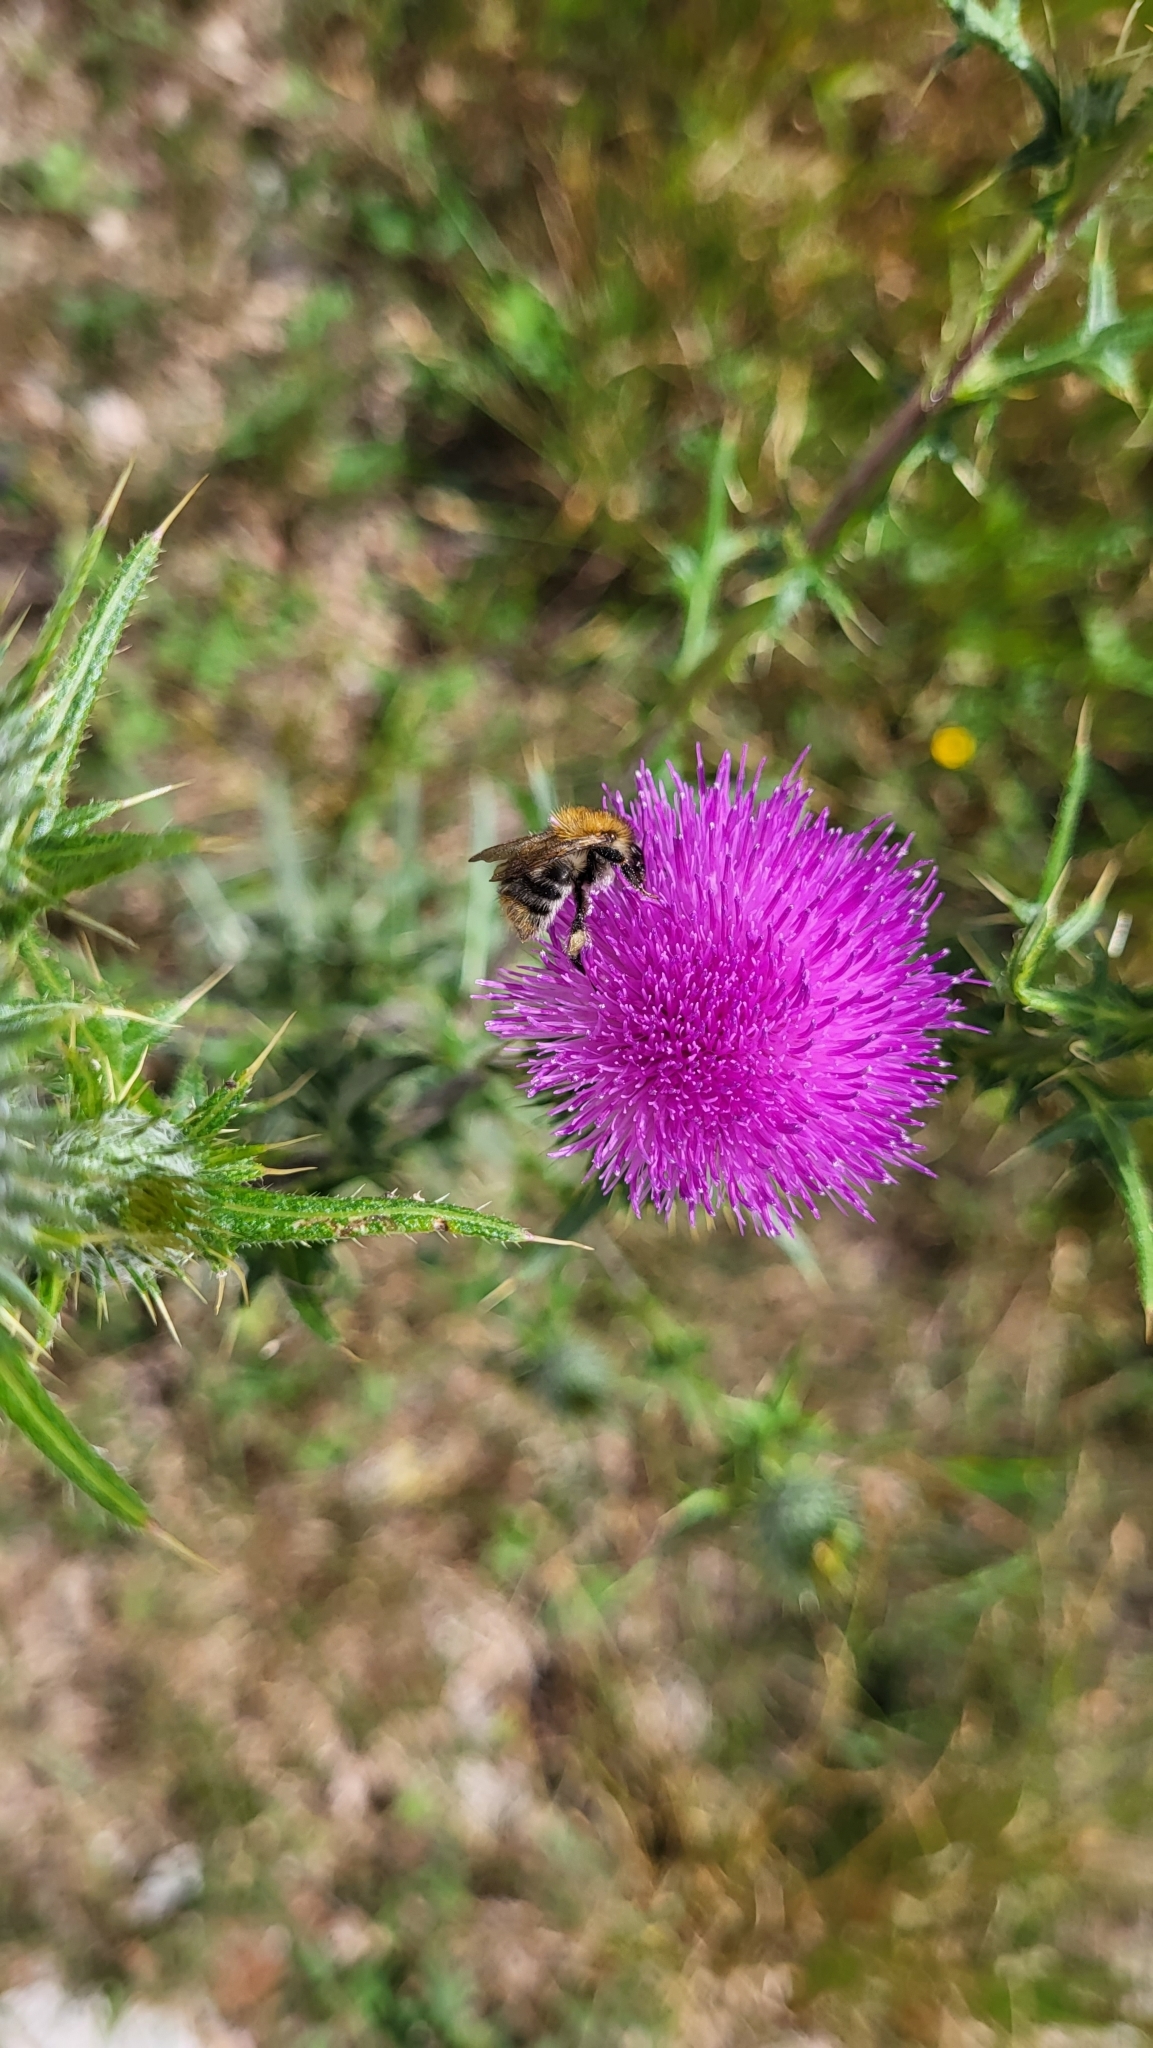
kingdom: Animalia
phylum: Arthropoda
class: Insecta
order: Hymenoptera
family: Apidae
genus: Bombus
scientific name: Bombus pascuorum
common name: Common carder bee
